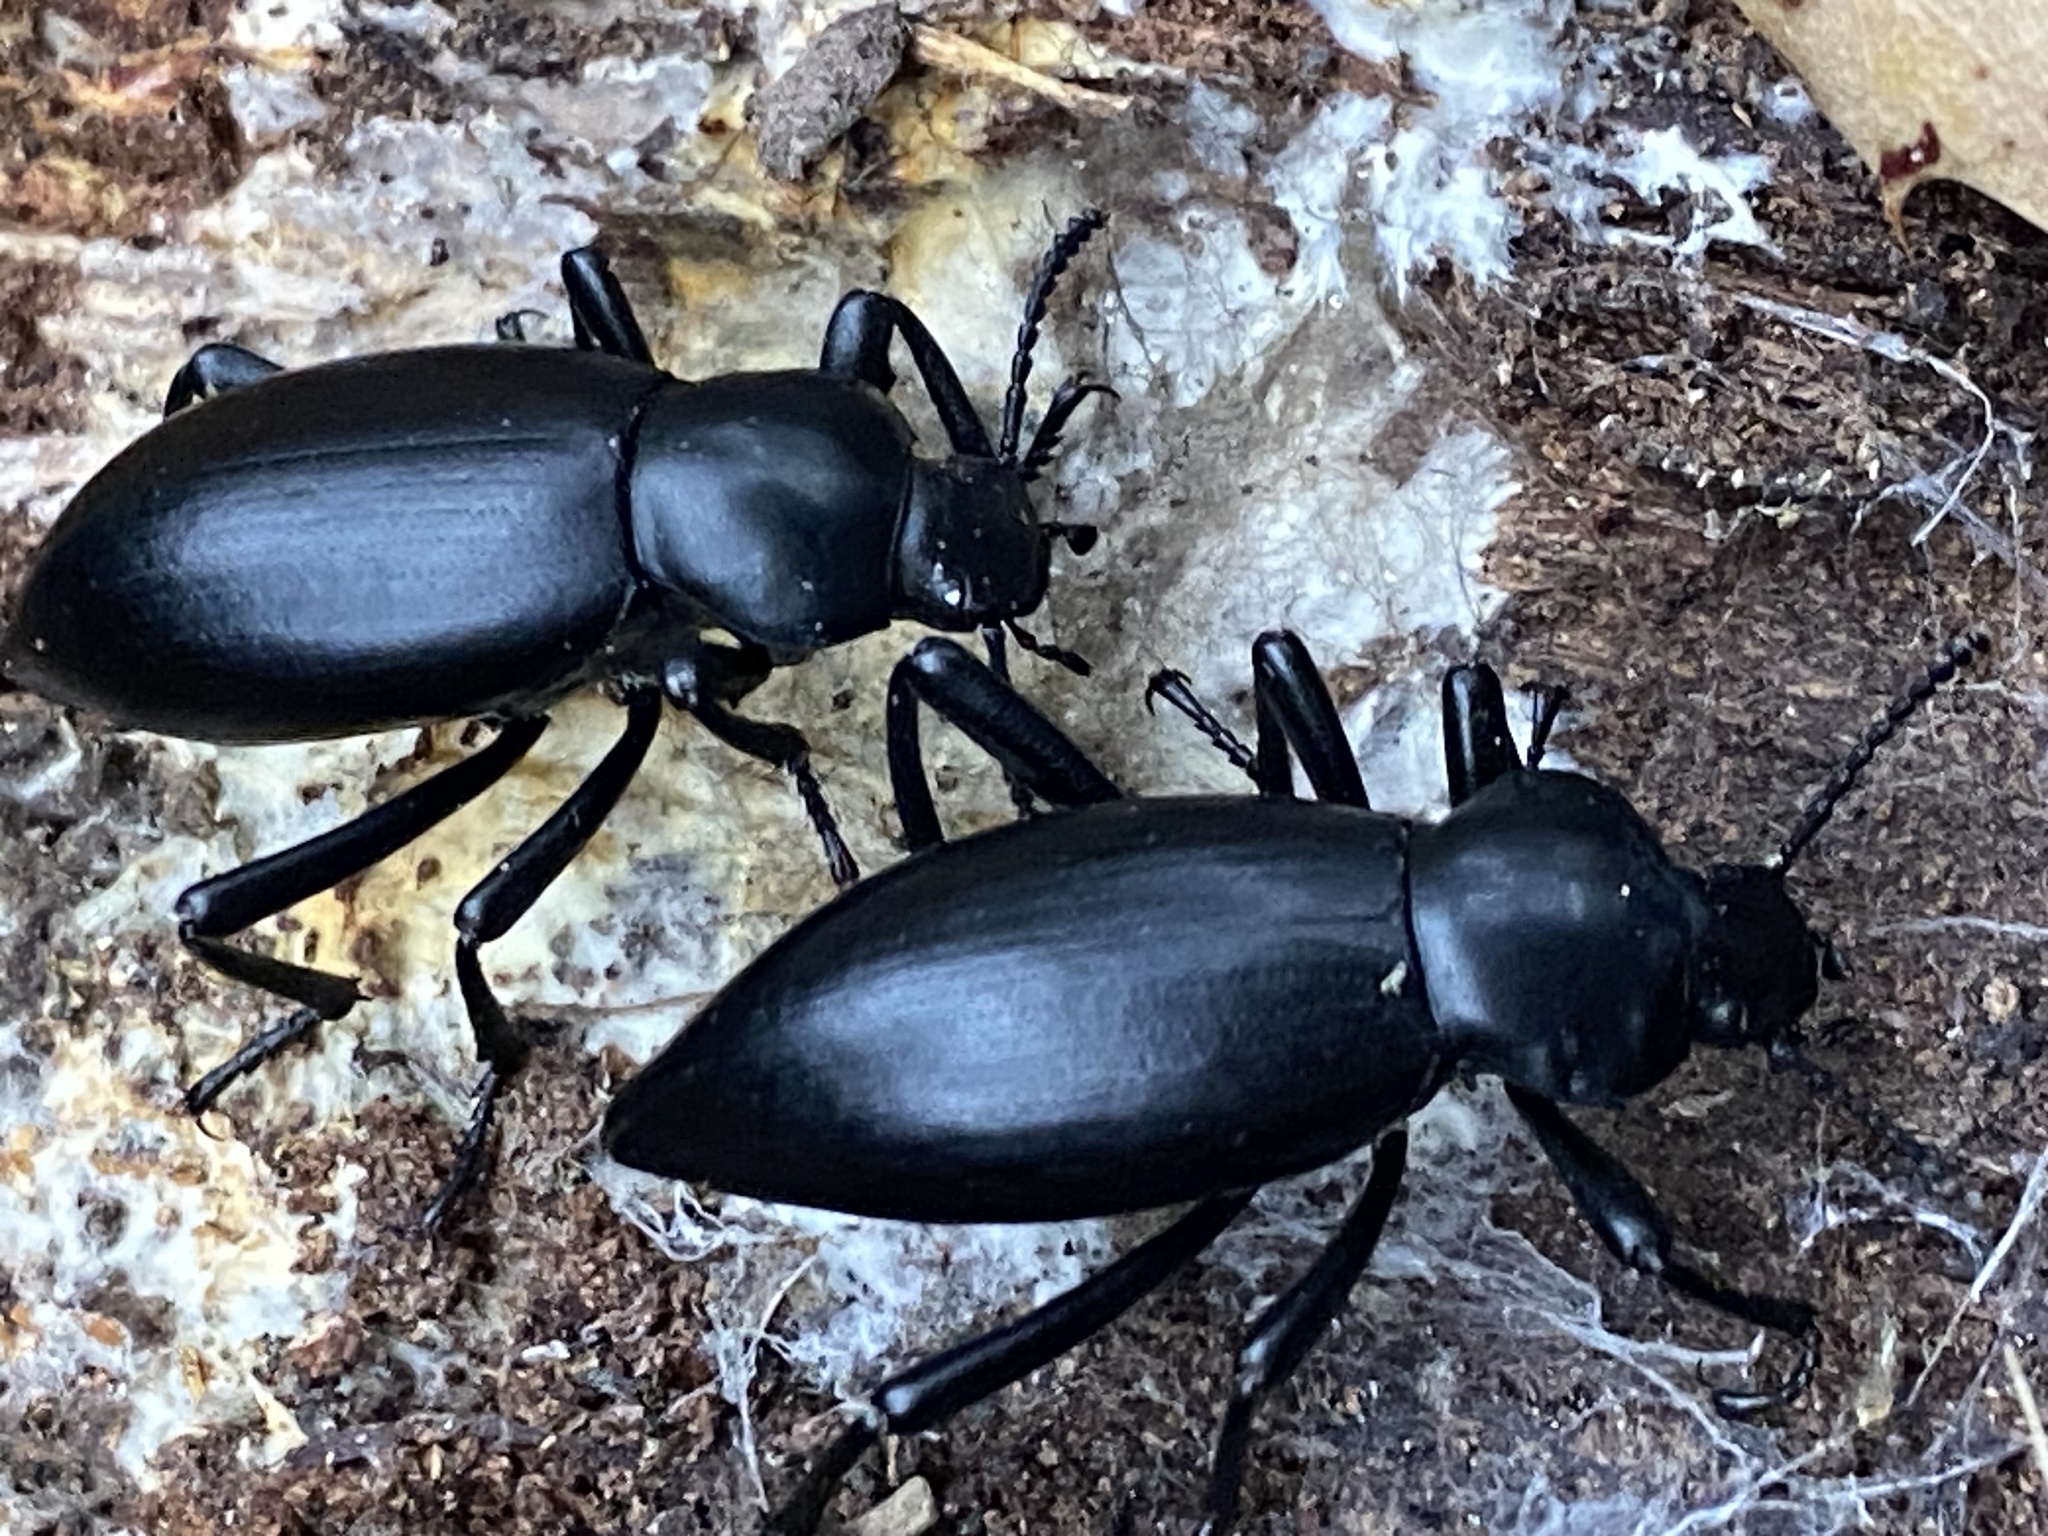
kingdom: Animalia
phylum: Arthropoda
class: Insecta
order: Coleoptera
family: Tenebrionidae
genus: Eleodes
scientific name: Eleodes dentipes
